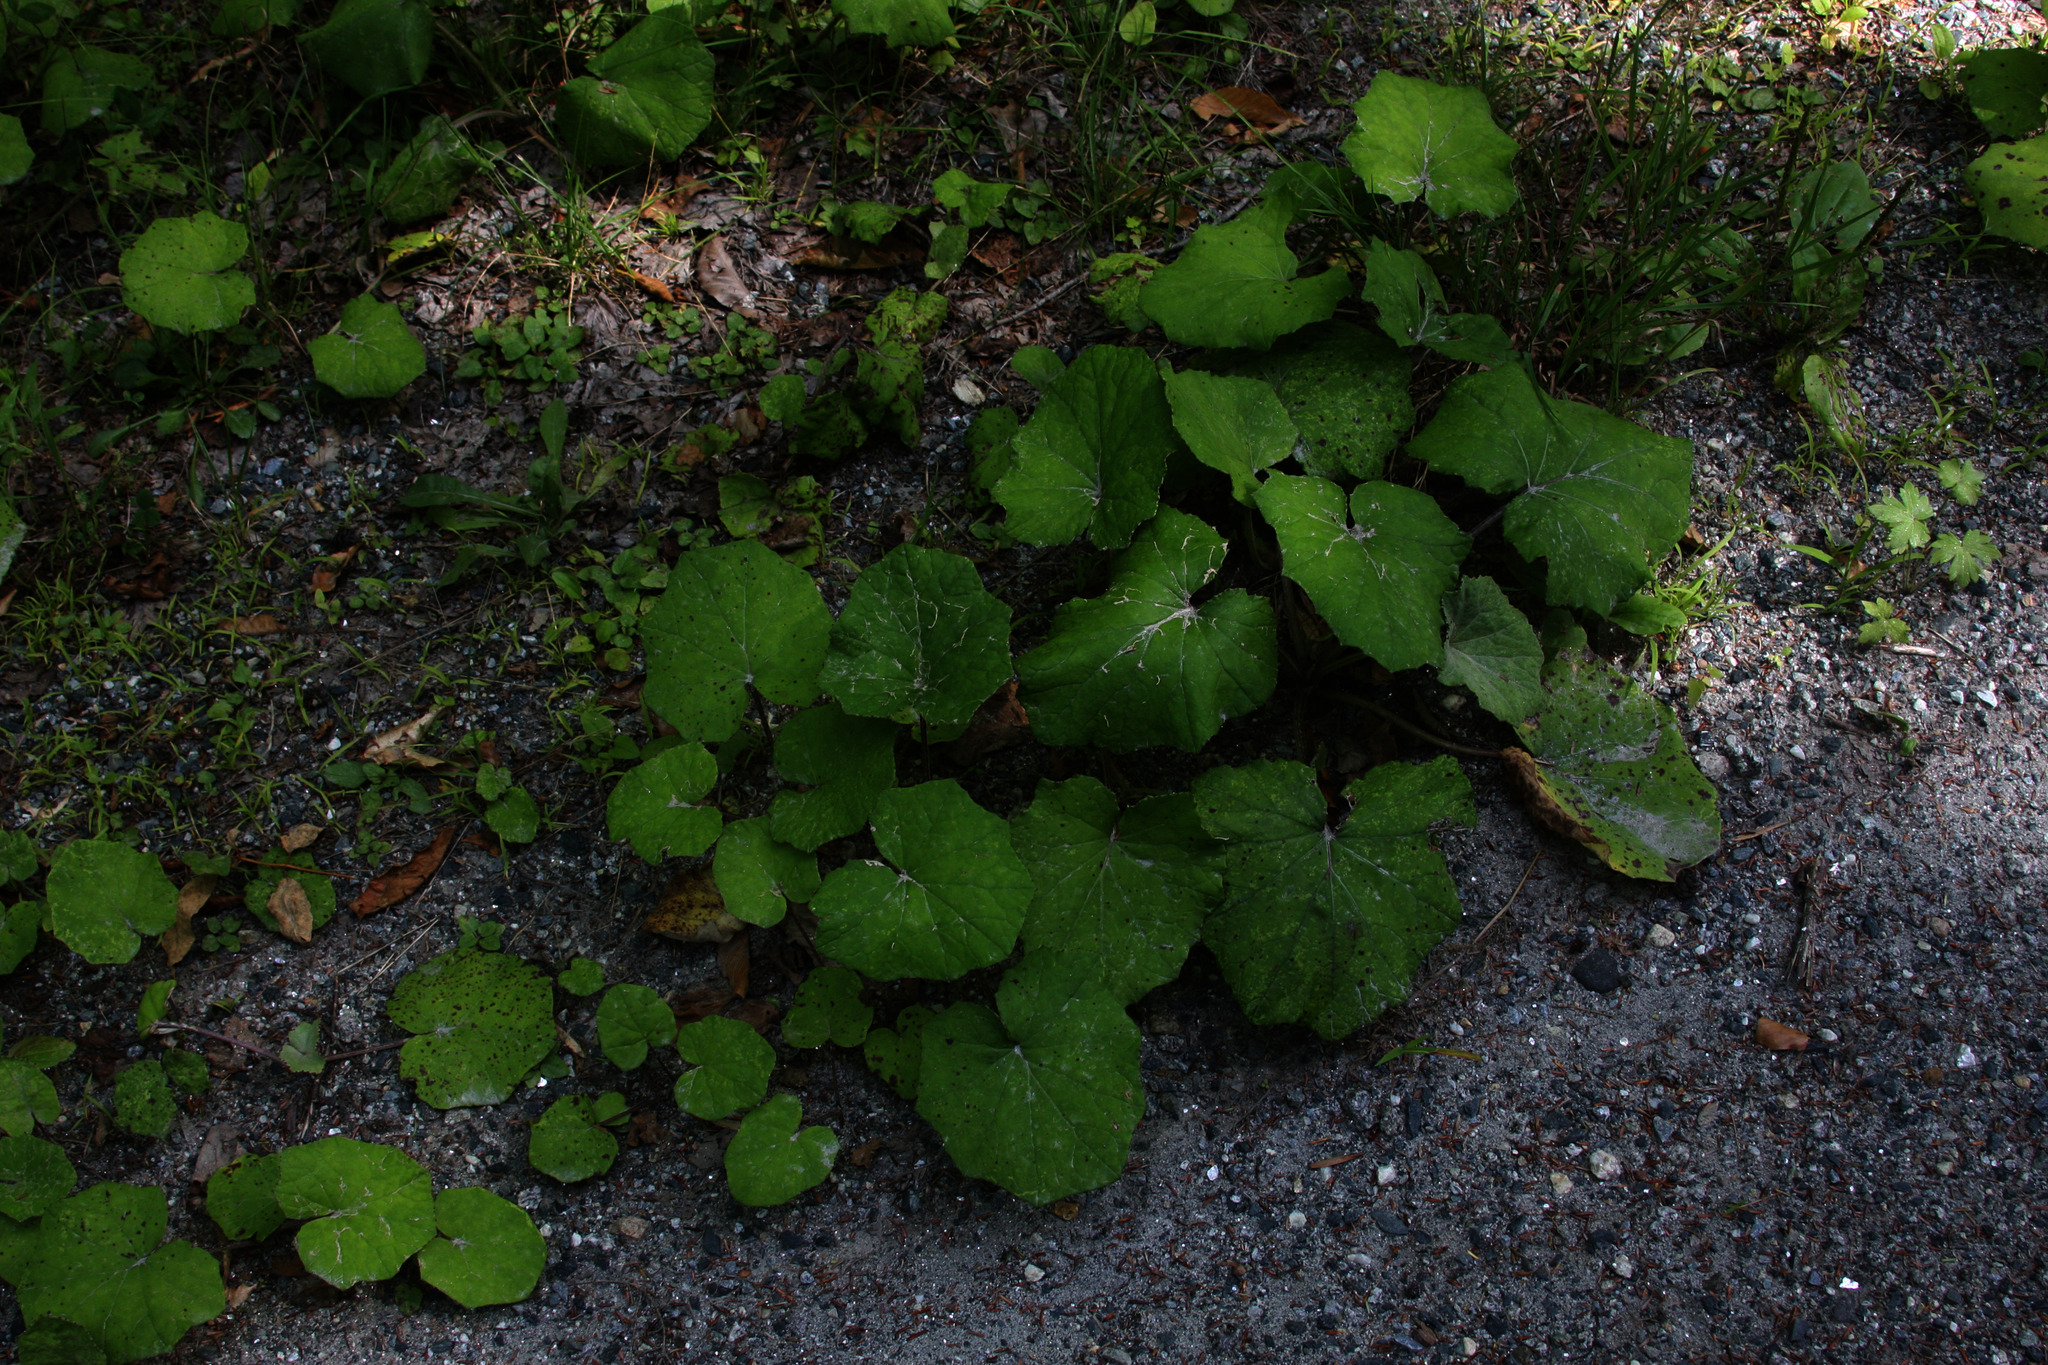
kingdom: Plantae
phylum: Tracheophyta
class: Magnoliopsida
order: Asterales
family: Asteraceae
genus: Tussilago
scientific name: Tussilago farfara
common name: Coltsfoot
